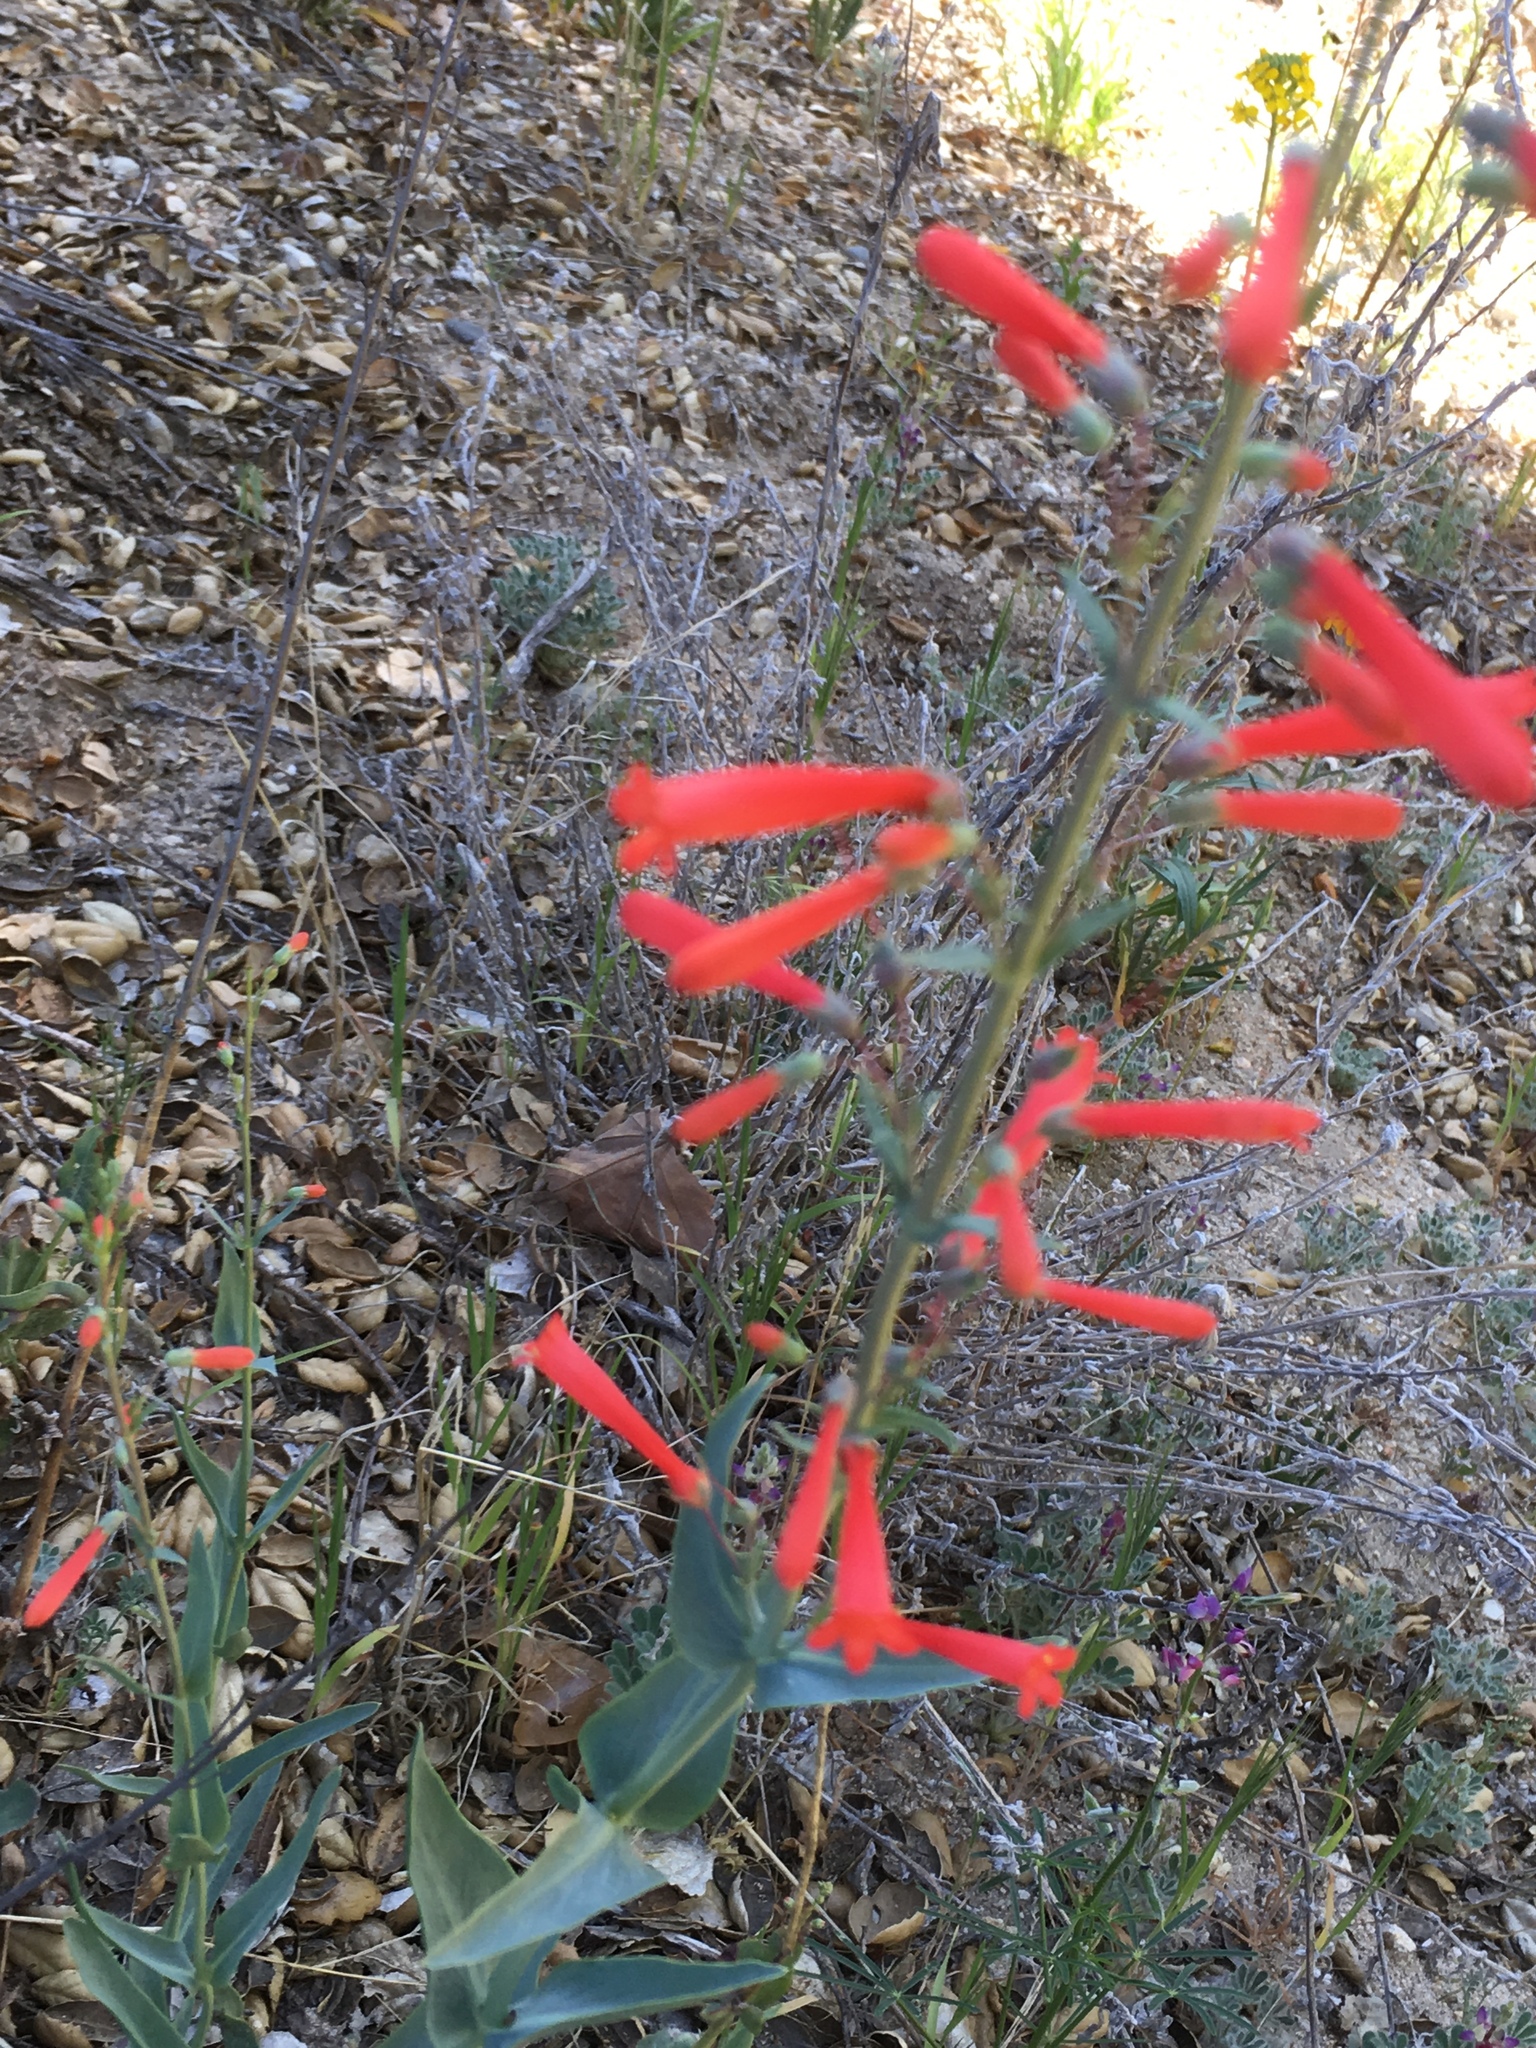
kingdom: Plantae
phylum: Tracheophyta
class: Magnoliopsida
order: Lamiales
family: Plantaginaceae
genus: Penstemon
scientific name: Penstemon centranthifolius
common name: Scarlet bugler
